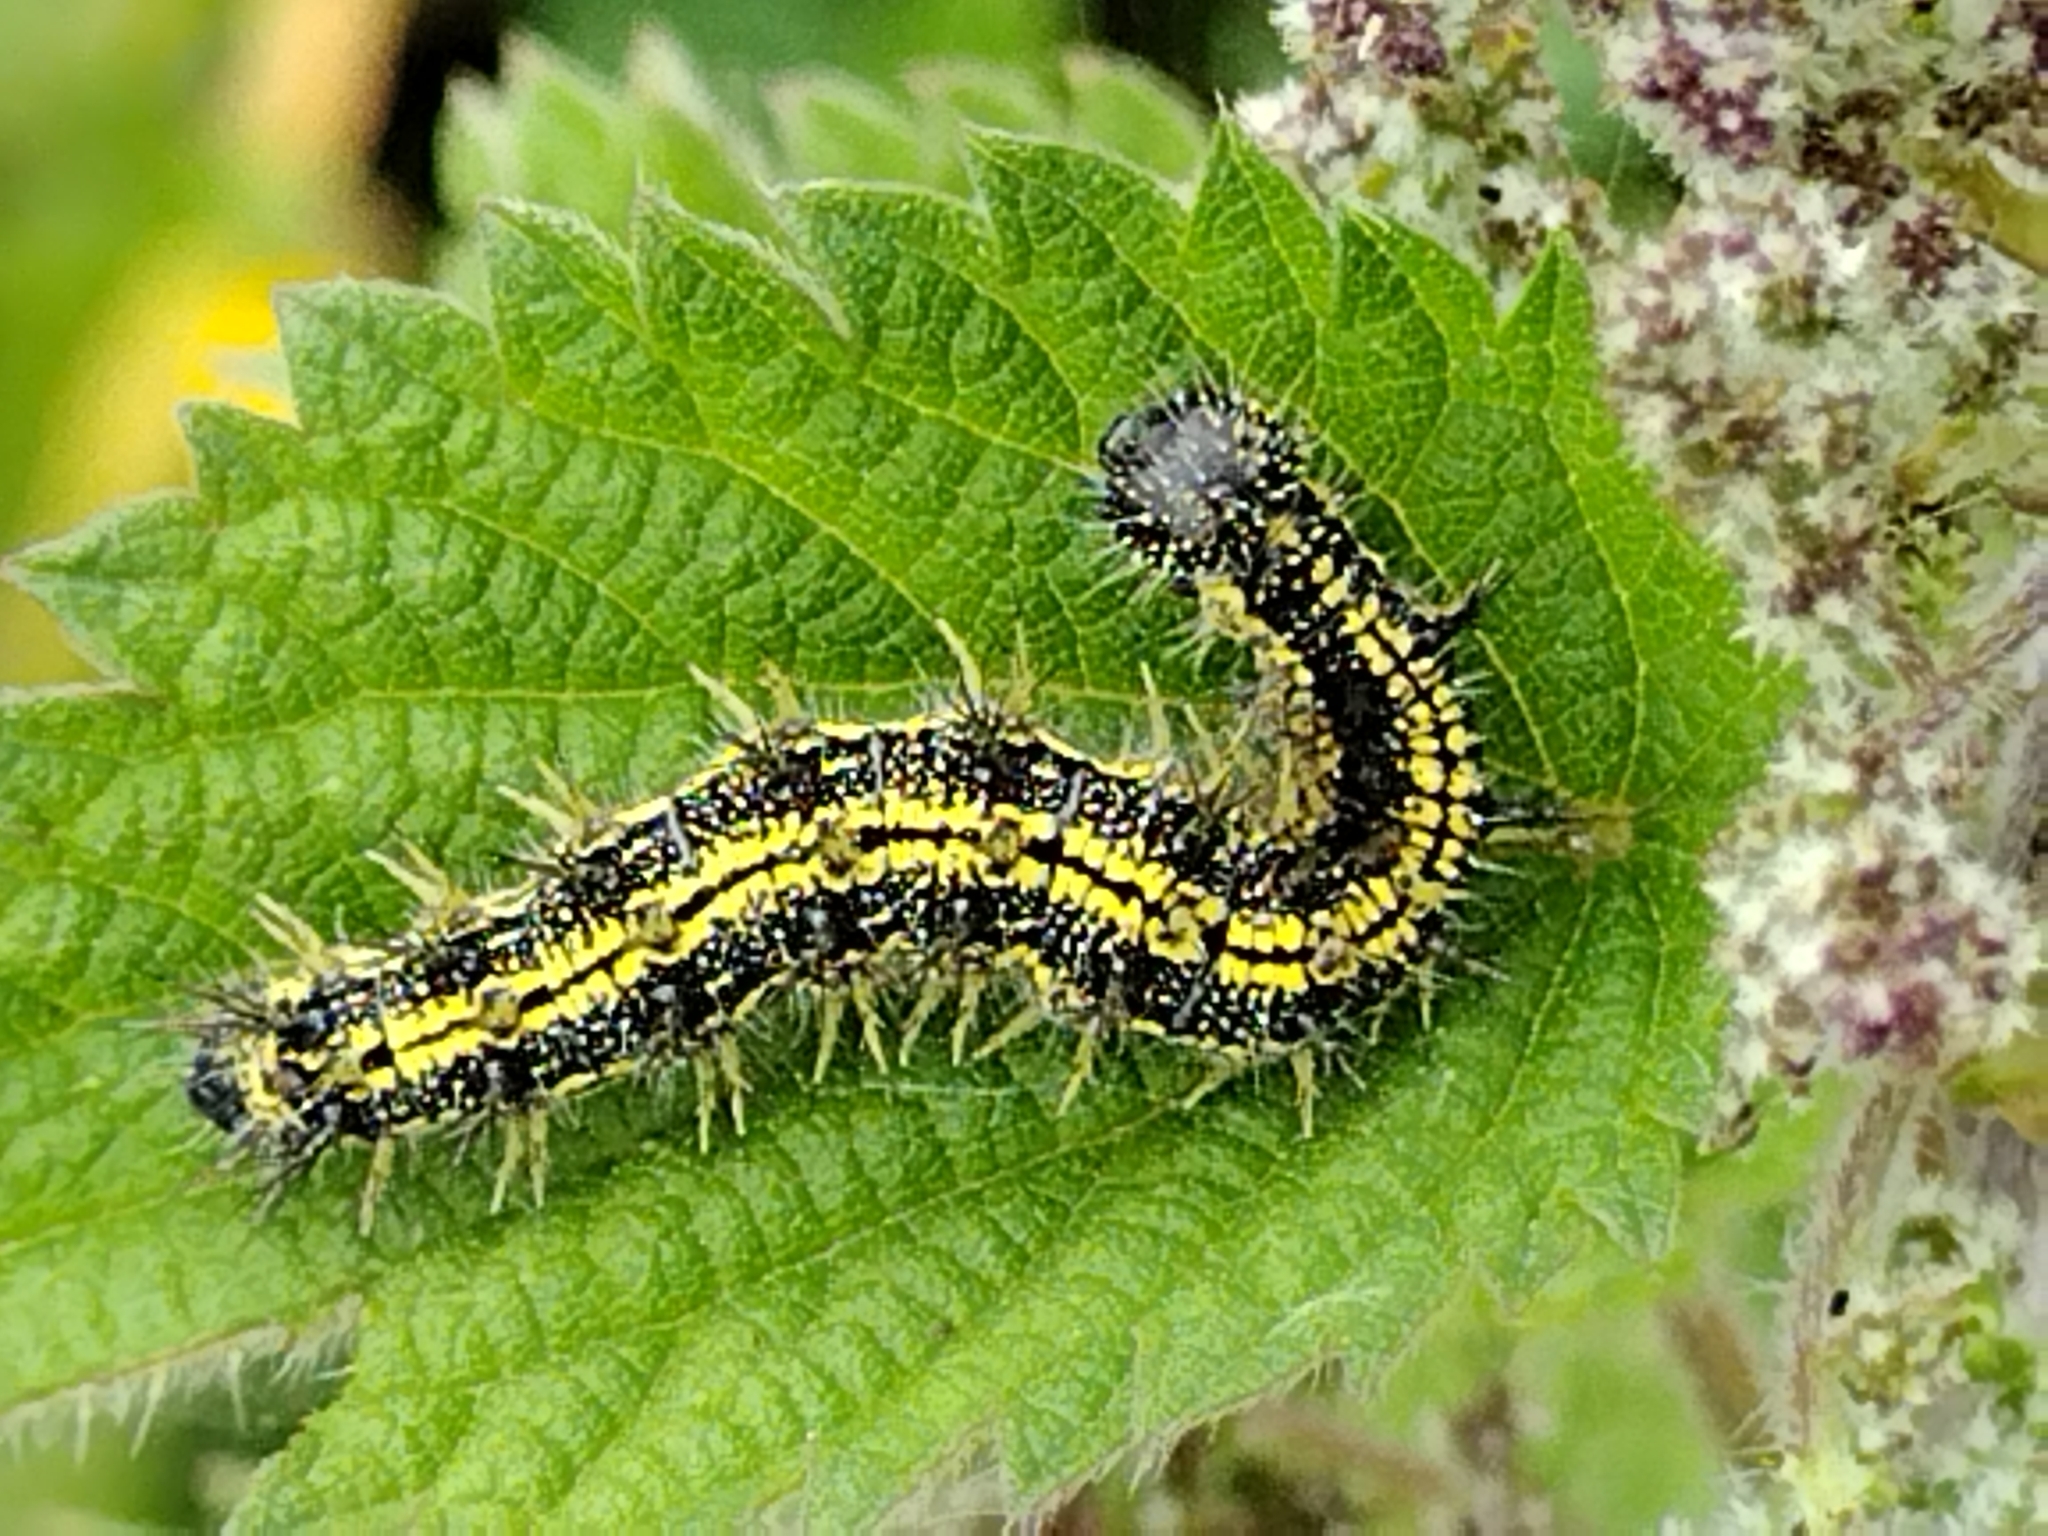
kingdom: Animalia
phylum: Arthropoda
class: Insecta
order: Lepidoptera
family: Nymphalidae
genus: Aglais
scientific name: Aglais urticae
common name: Small tortoiseshell
